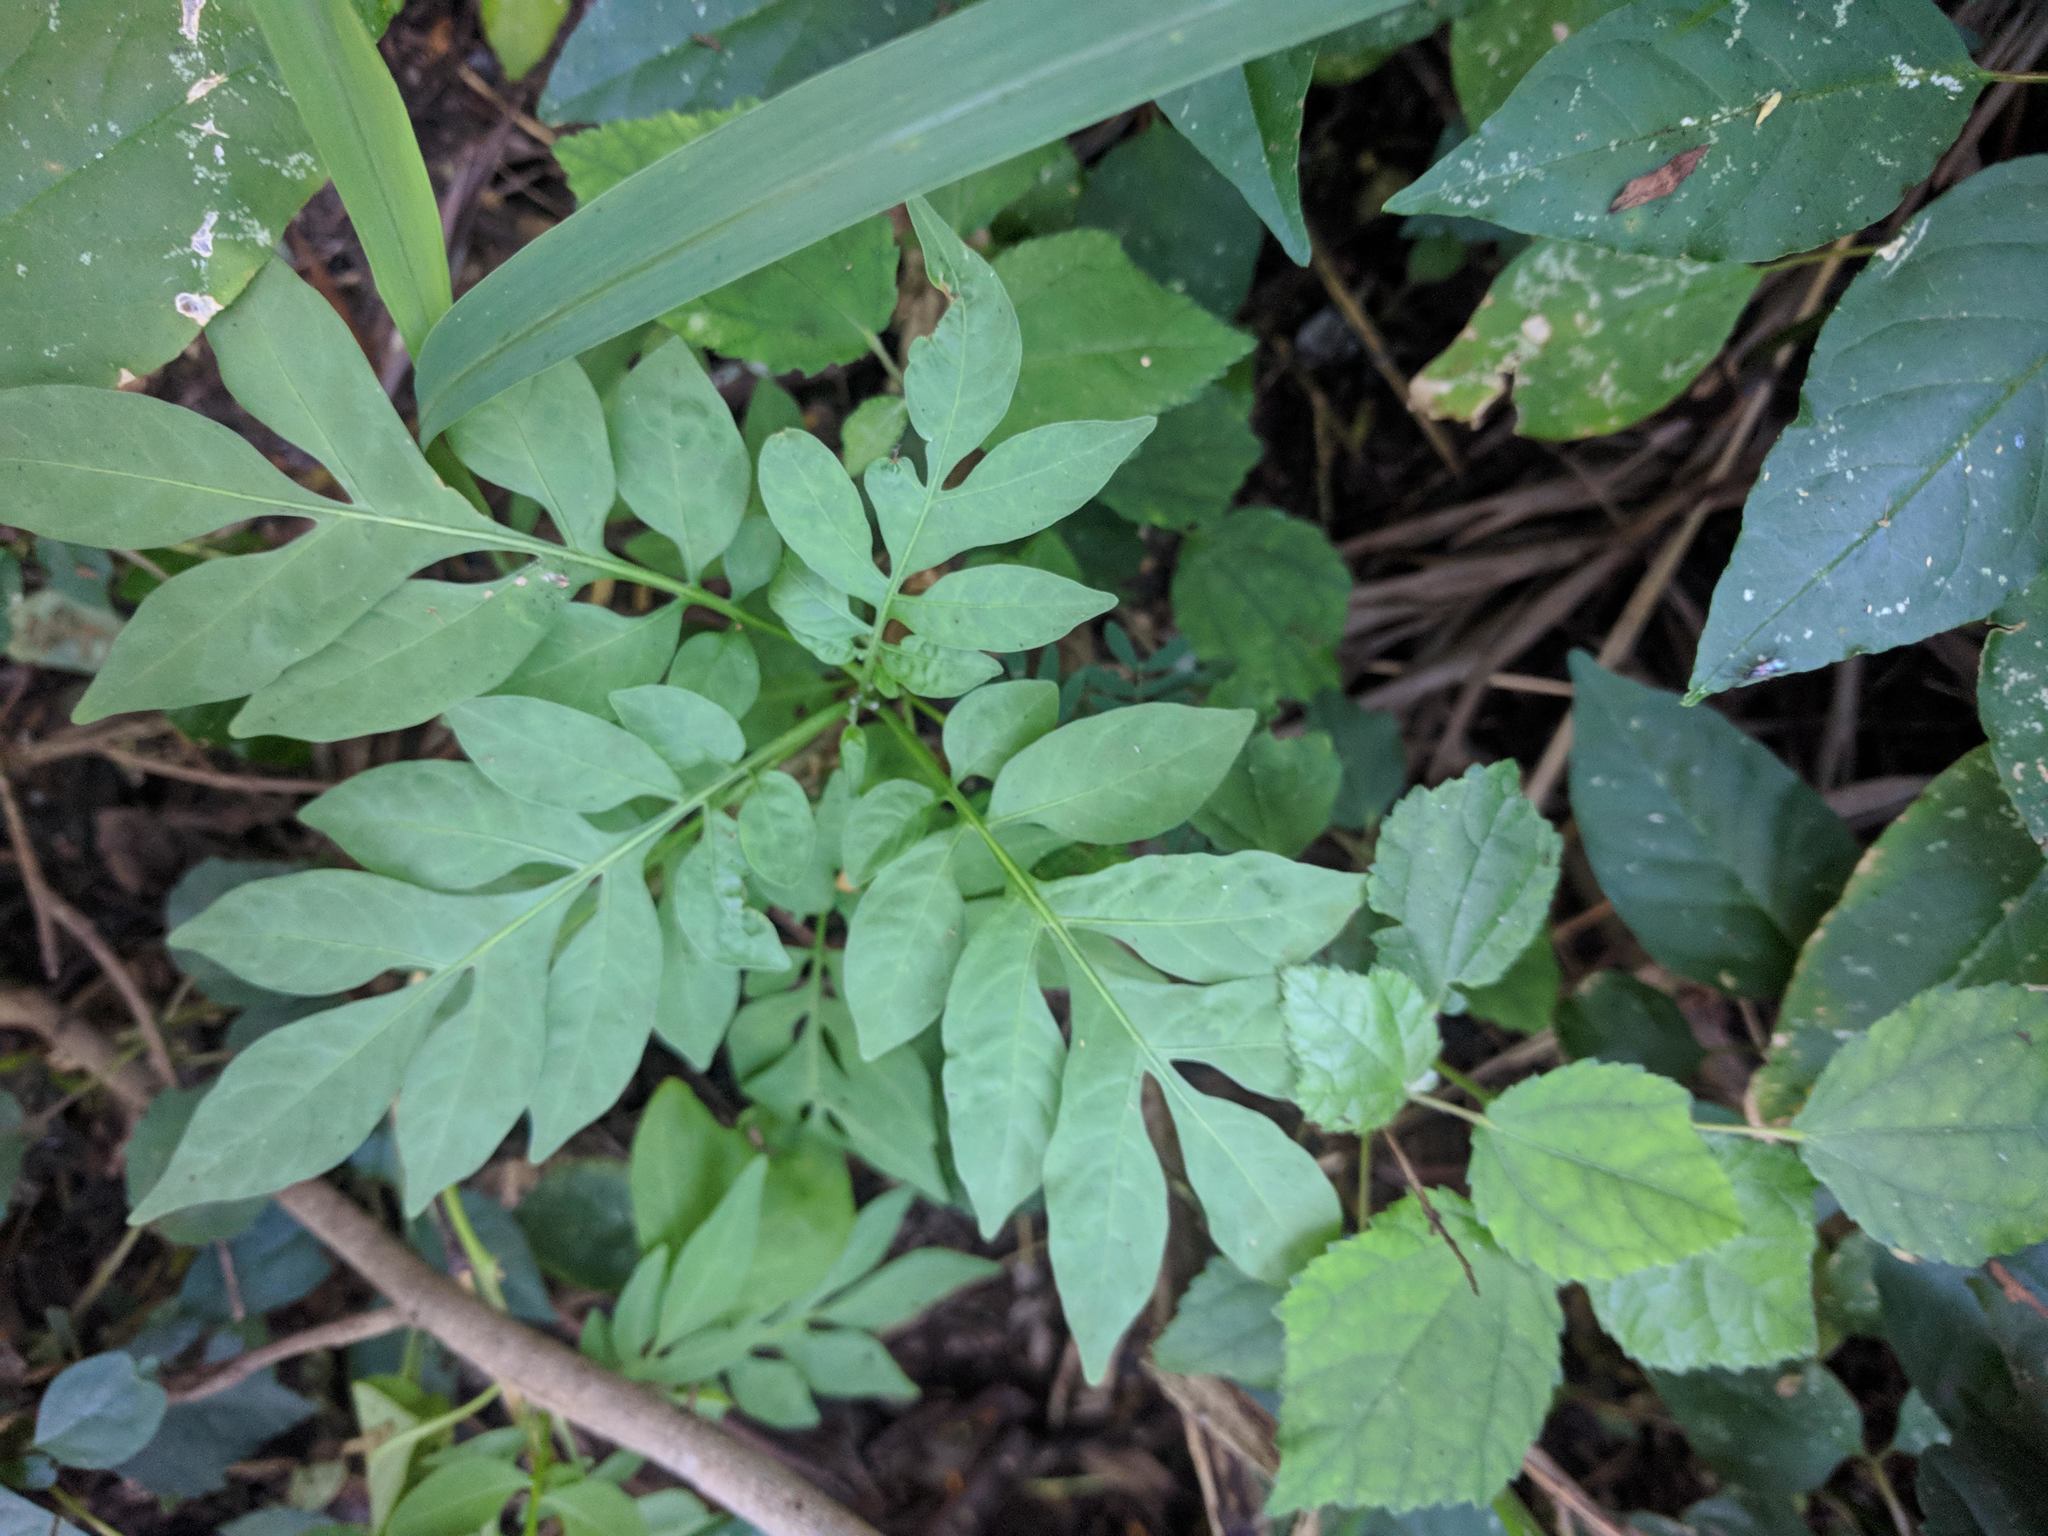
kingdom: Plantae
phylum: Tracheophyta
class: Magnoliopsida
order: Solanales
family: Solanaceae
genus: Solanum
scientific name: Solanum seaforthianum
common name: Brazilian nightshade
